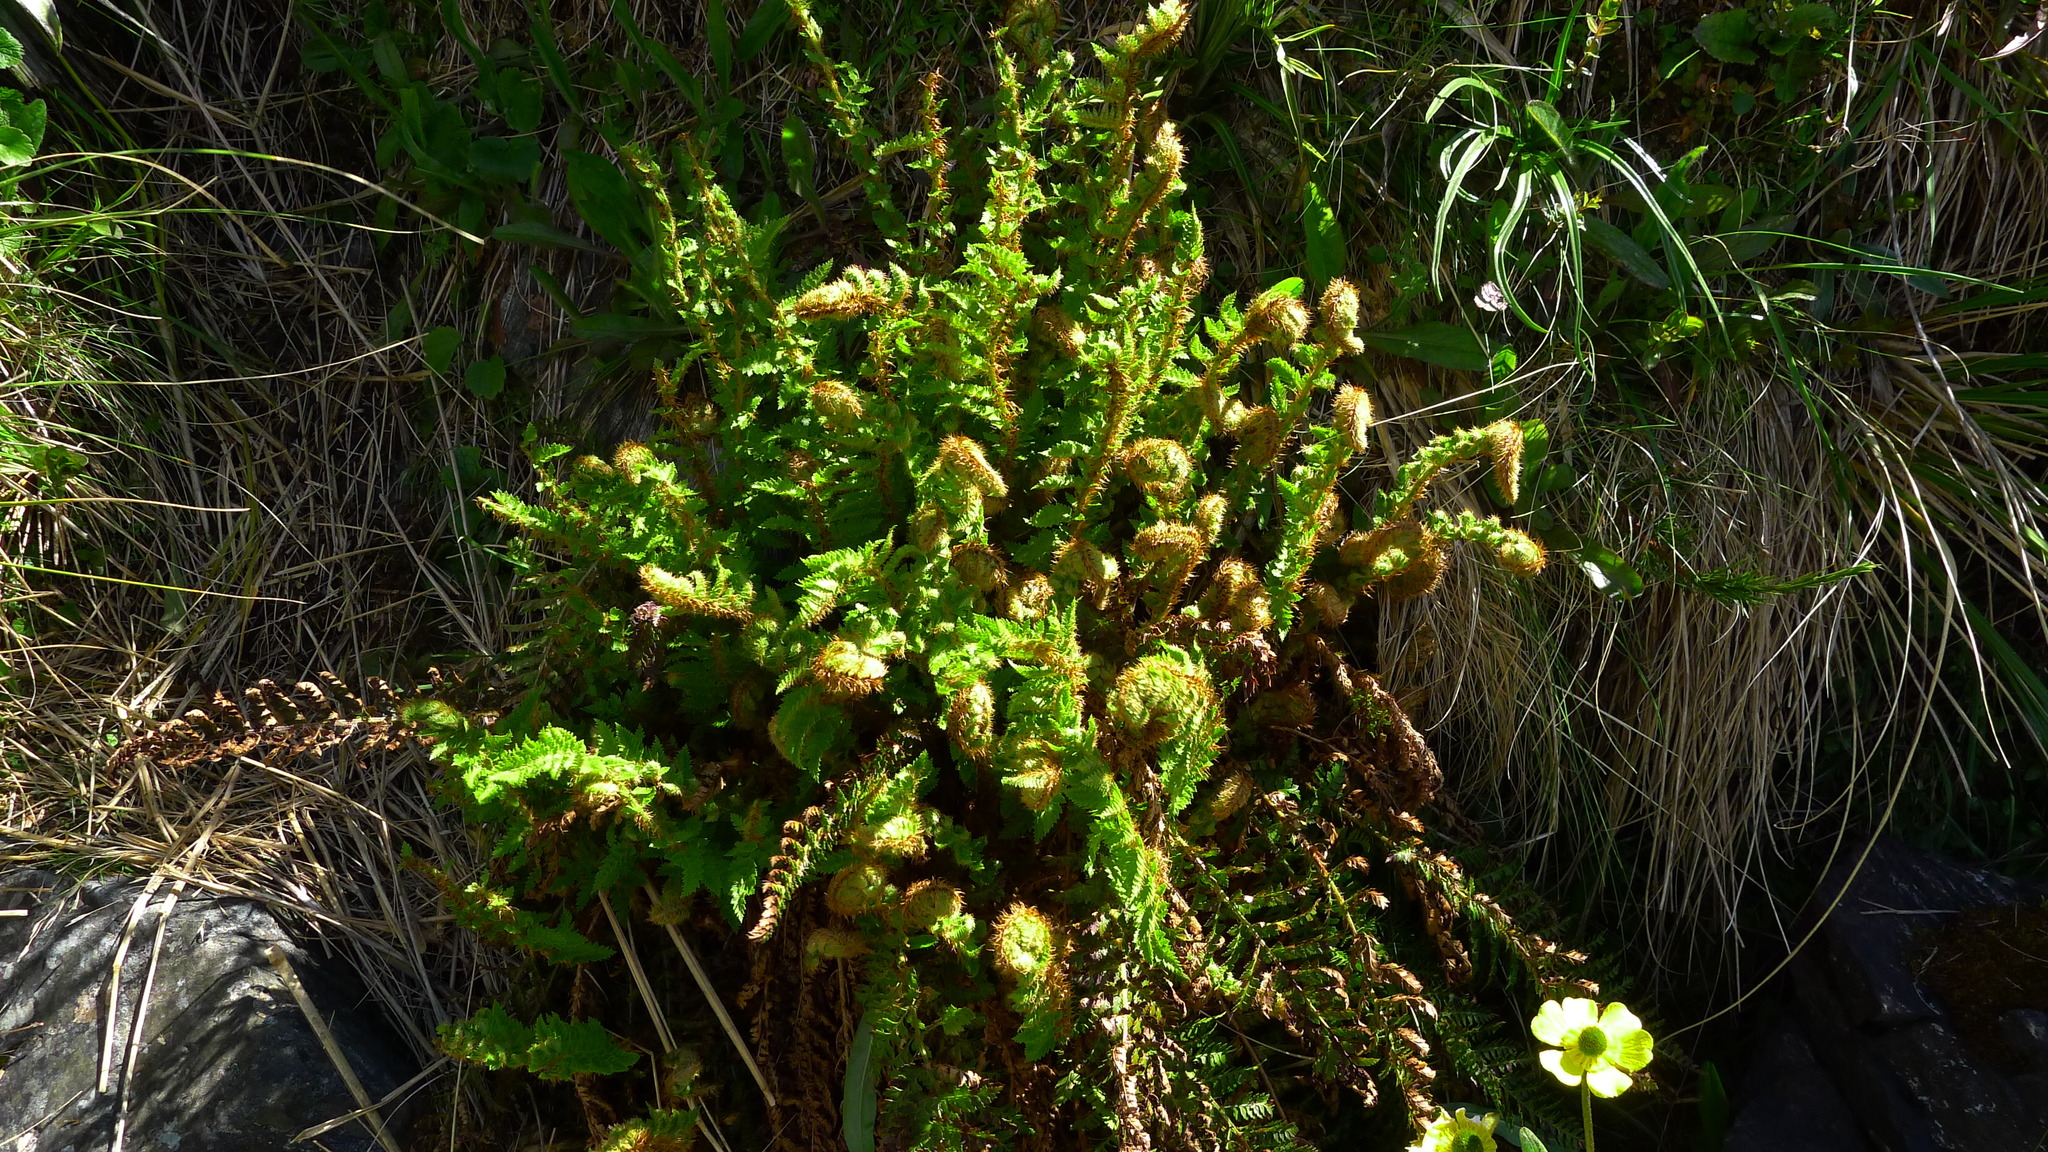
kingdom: Plantae
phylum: Tracheophyta
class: Polypodiopsida
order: Polypodiales
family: Dryopteridaceae
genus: Polystichum
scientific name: Polystichum cystostegia
